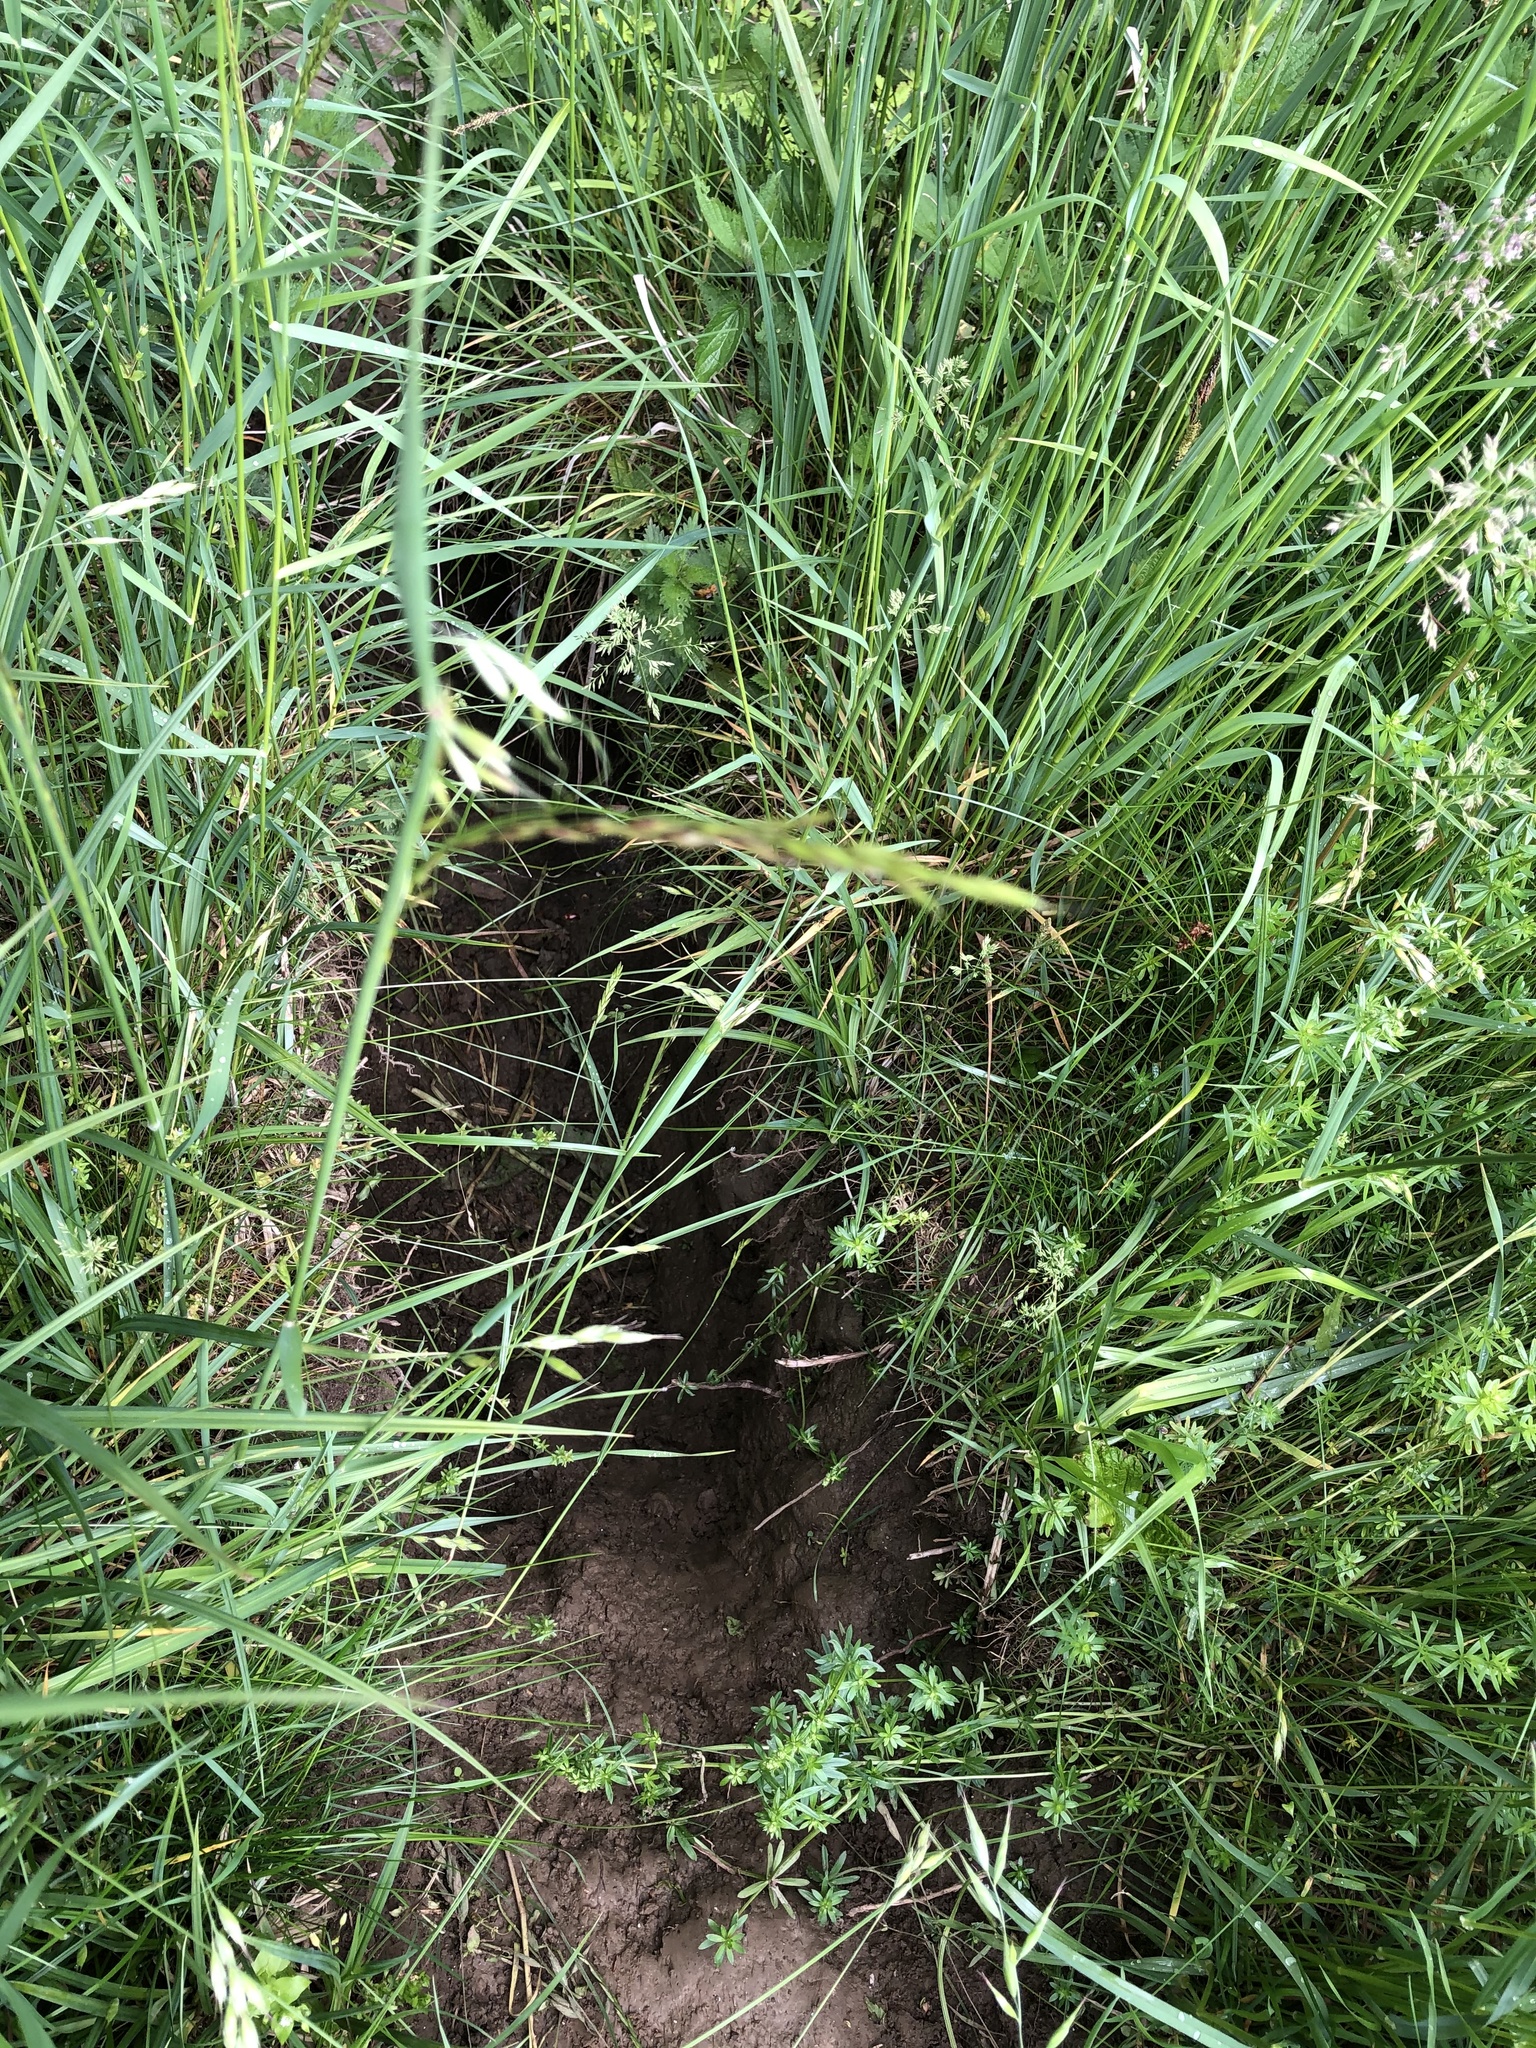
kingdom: Animalia
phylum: Chordata
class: Mammalia
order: Rodentia
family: Castoridae
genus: Castor
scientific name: Castor fiber
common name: Eurasian beaver
